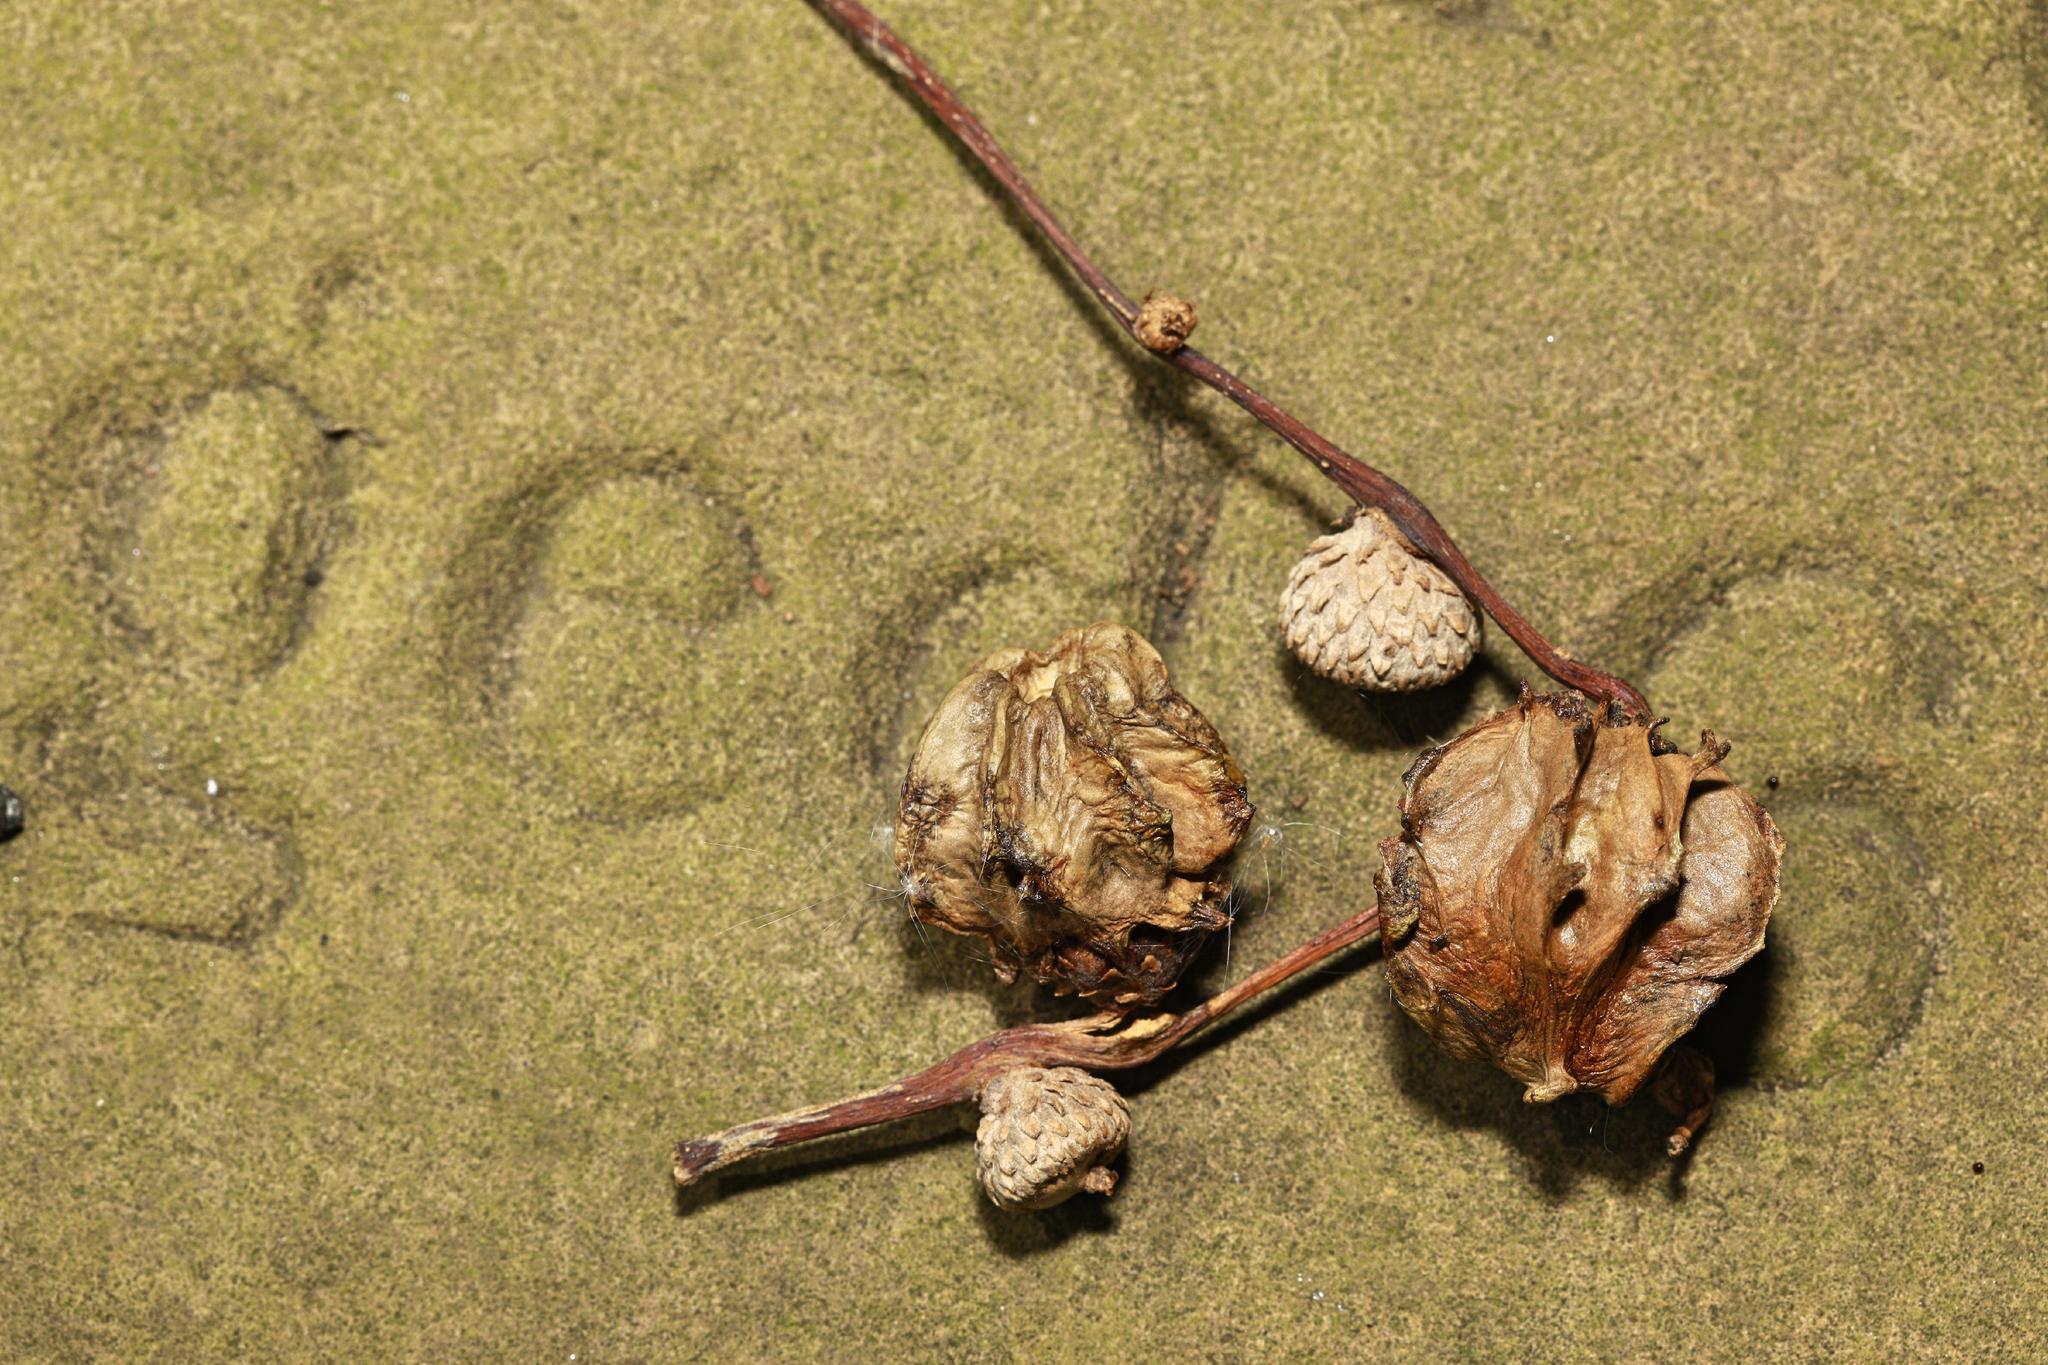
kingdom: Animalia
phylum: Arthropoda
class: Insecta
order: Hymenoptera
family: Cynipidae
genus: Andricus
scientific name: Andricus quercuscalicis
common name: Knopper gall
